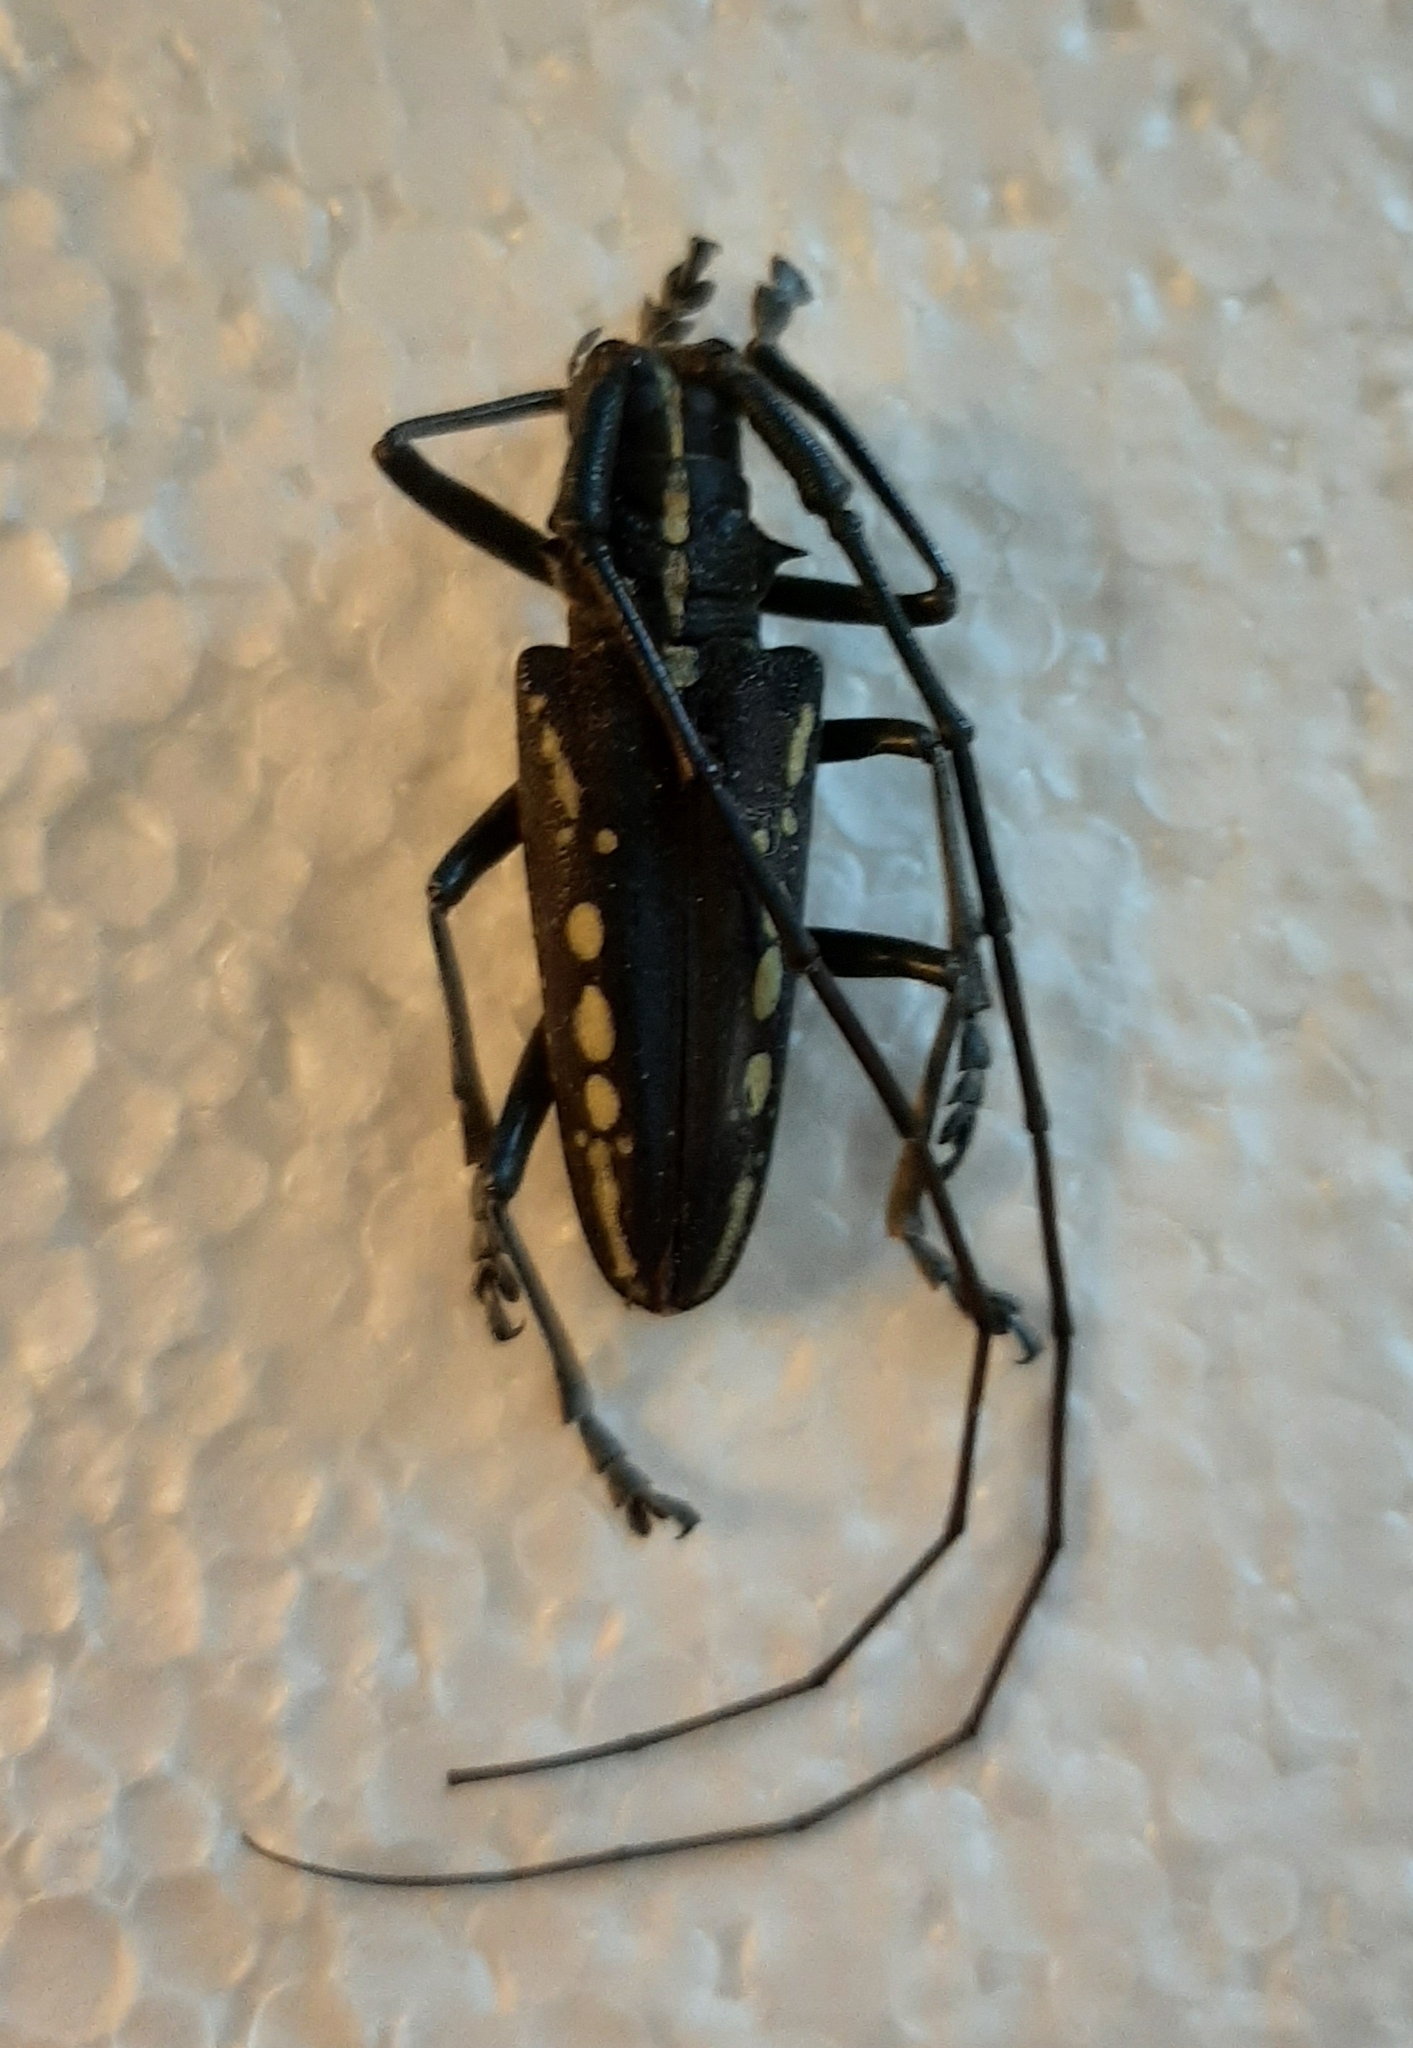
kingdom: Animalia
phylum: Arthropoda
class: Insecta
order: Coleoptera
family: Cerambycidae
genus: Taeniotes
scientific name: Taeniotes orbignyi
